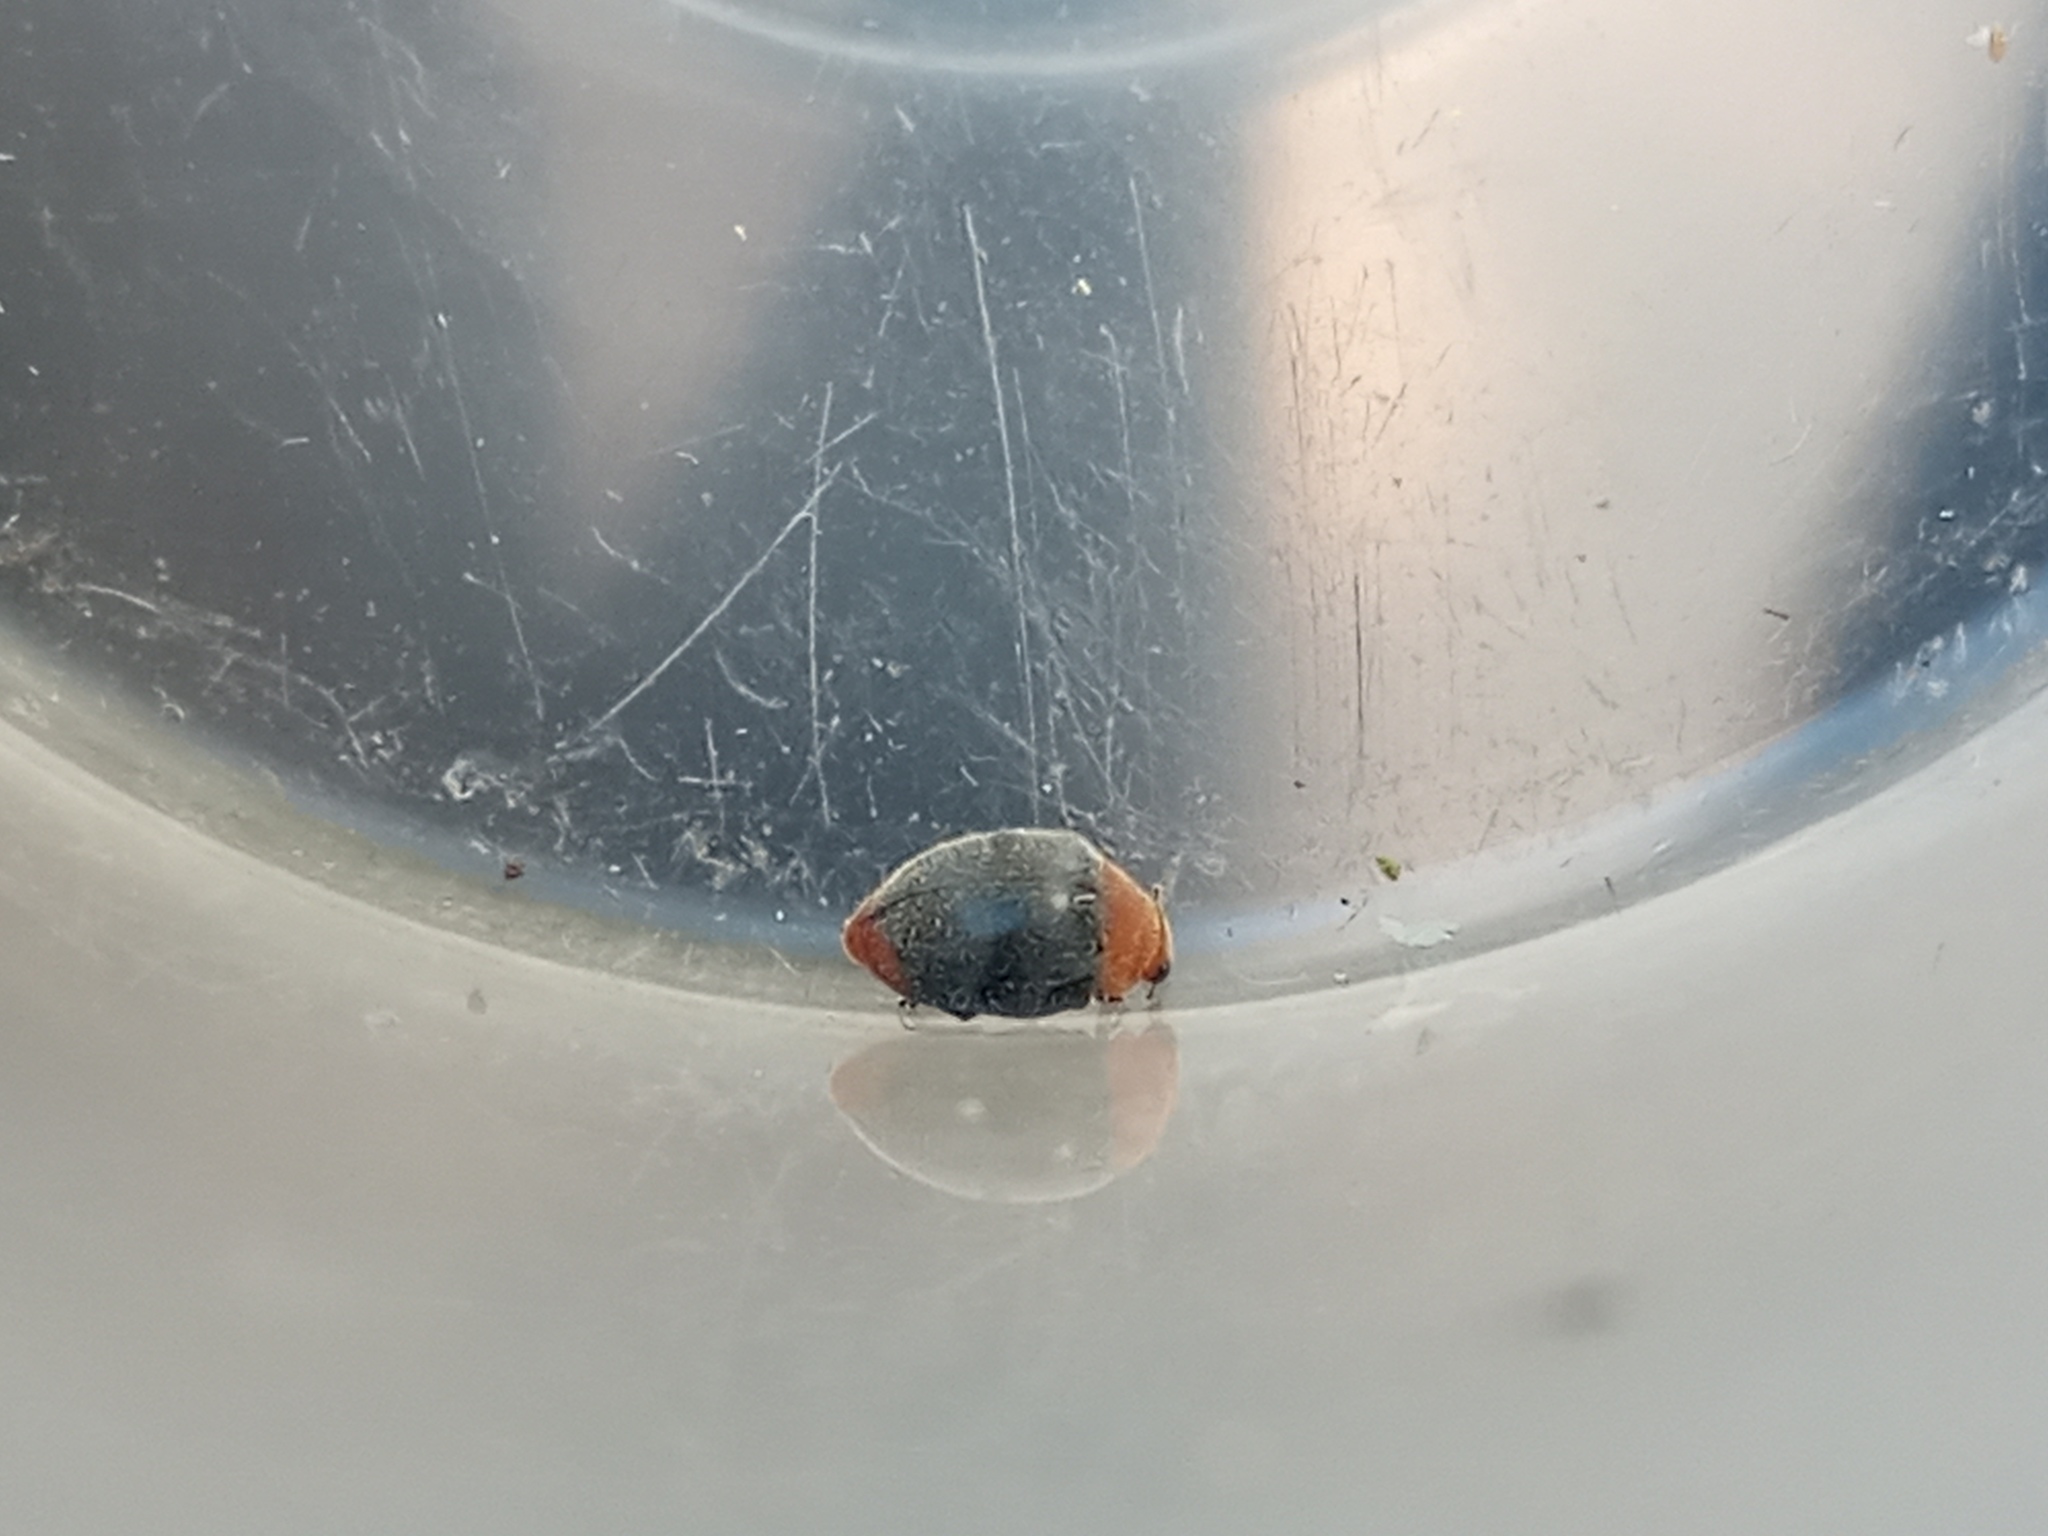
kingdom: Animalia
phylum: Arthropoda
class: Insecta
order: Coleoptera
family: Coccinellidae
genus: Cryptolaemus
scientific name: Cryptolaemus montrouzieri
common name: Mealybug destroyer
